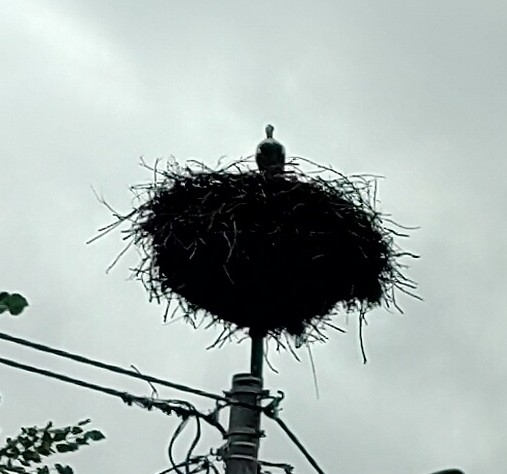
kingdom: Animalia
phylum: Chordata
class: Aves
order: Ciconiiformes
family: Ciconiidae
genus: Ciconia
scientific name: Ciconia ciconia
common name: White stork
